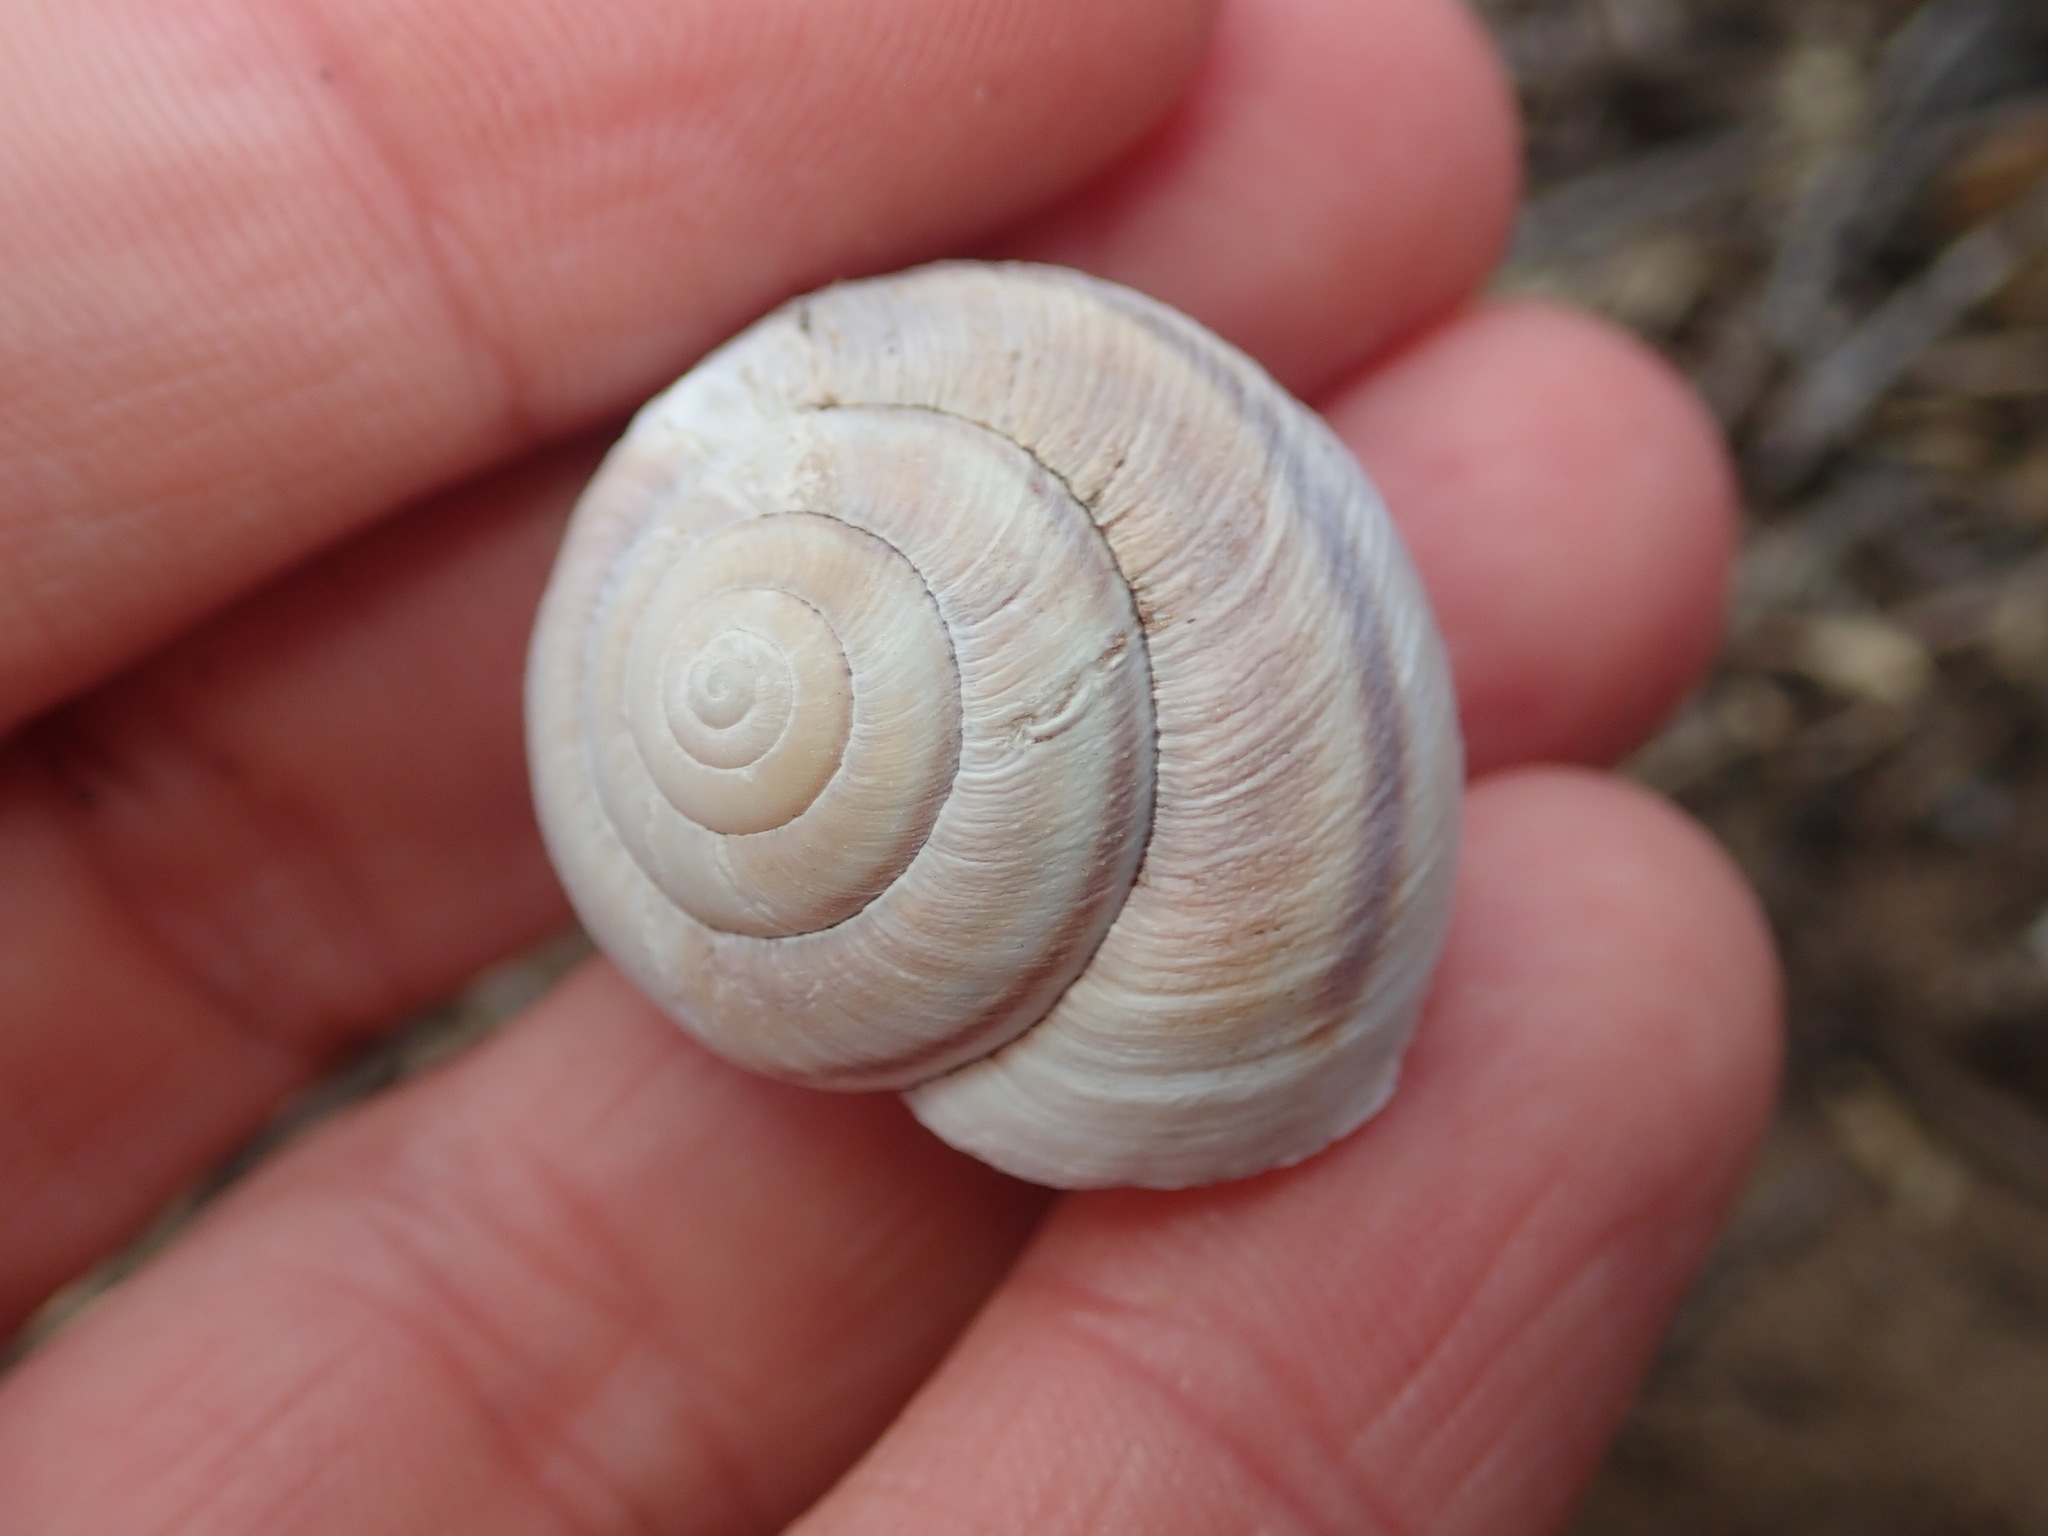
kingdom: Animalia
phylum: Mollusca
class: Gastropoda
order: Stylommatophora
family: Xanthonychidae
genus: Helminthoglypta
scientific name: Helminthoglypta walkeriana
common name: Banded dune snail
